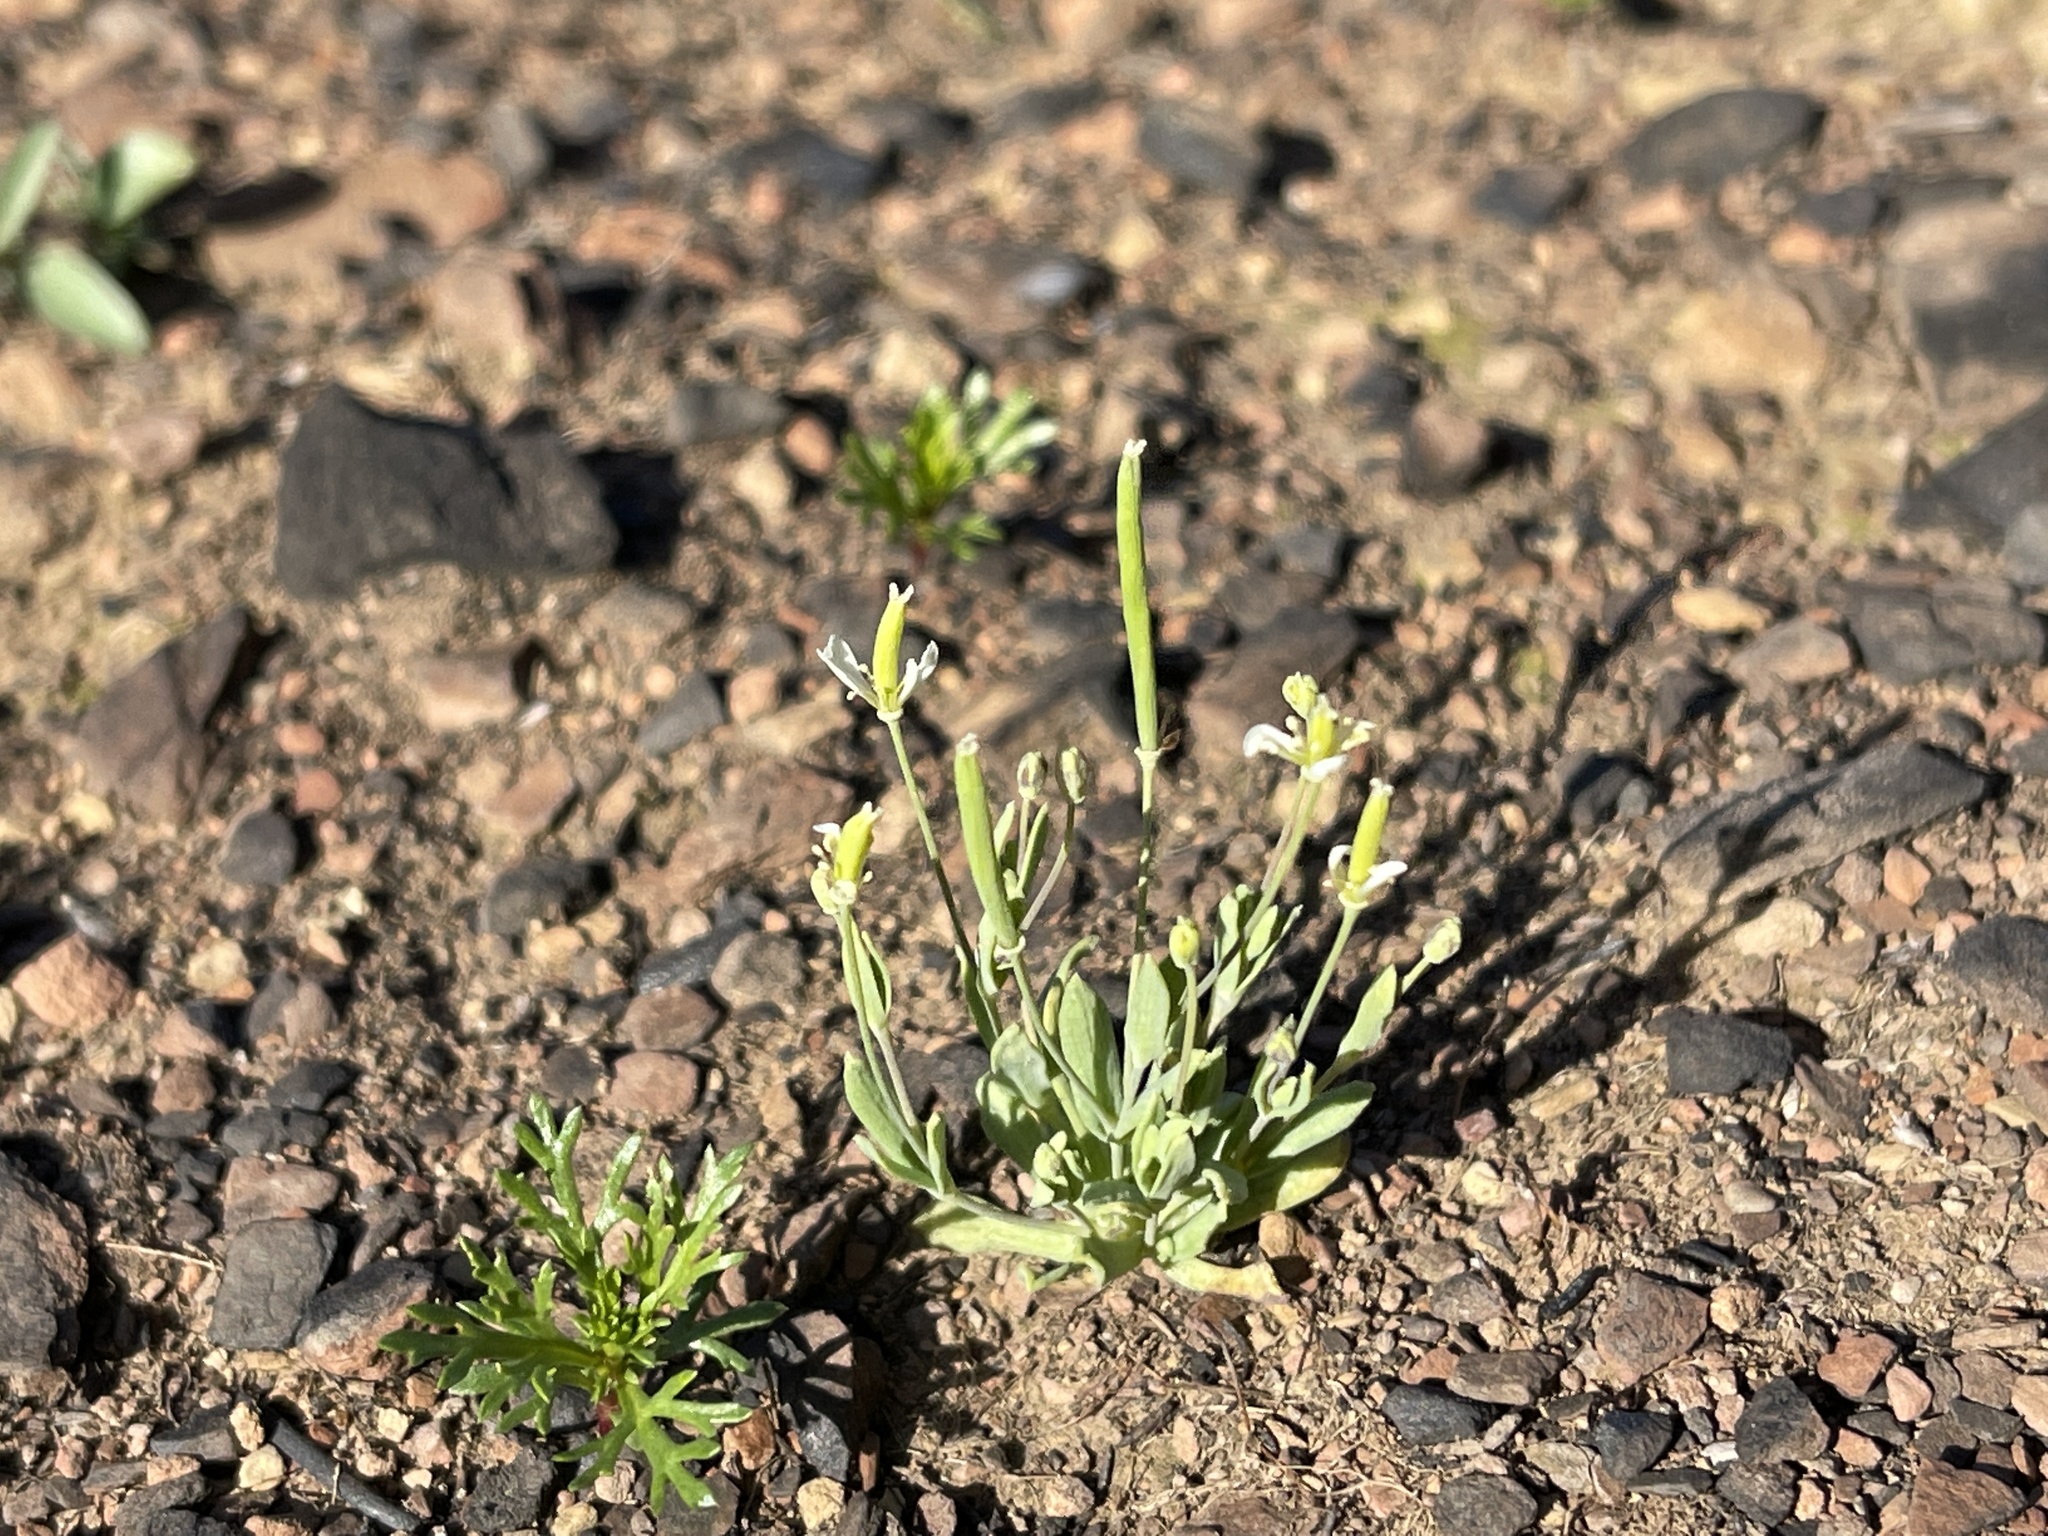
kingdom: Plantae
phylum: Tracheophyta
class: Magnoliopsida
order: Ranunculales
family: Papaveraceae
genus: Meconella
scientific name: Meconella oregana
